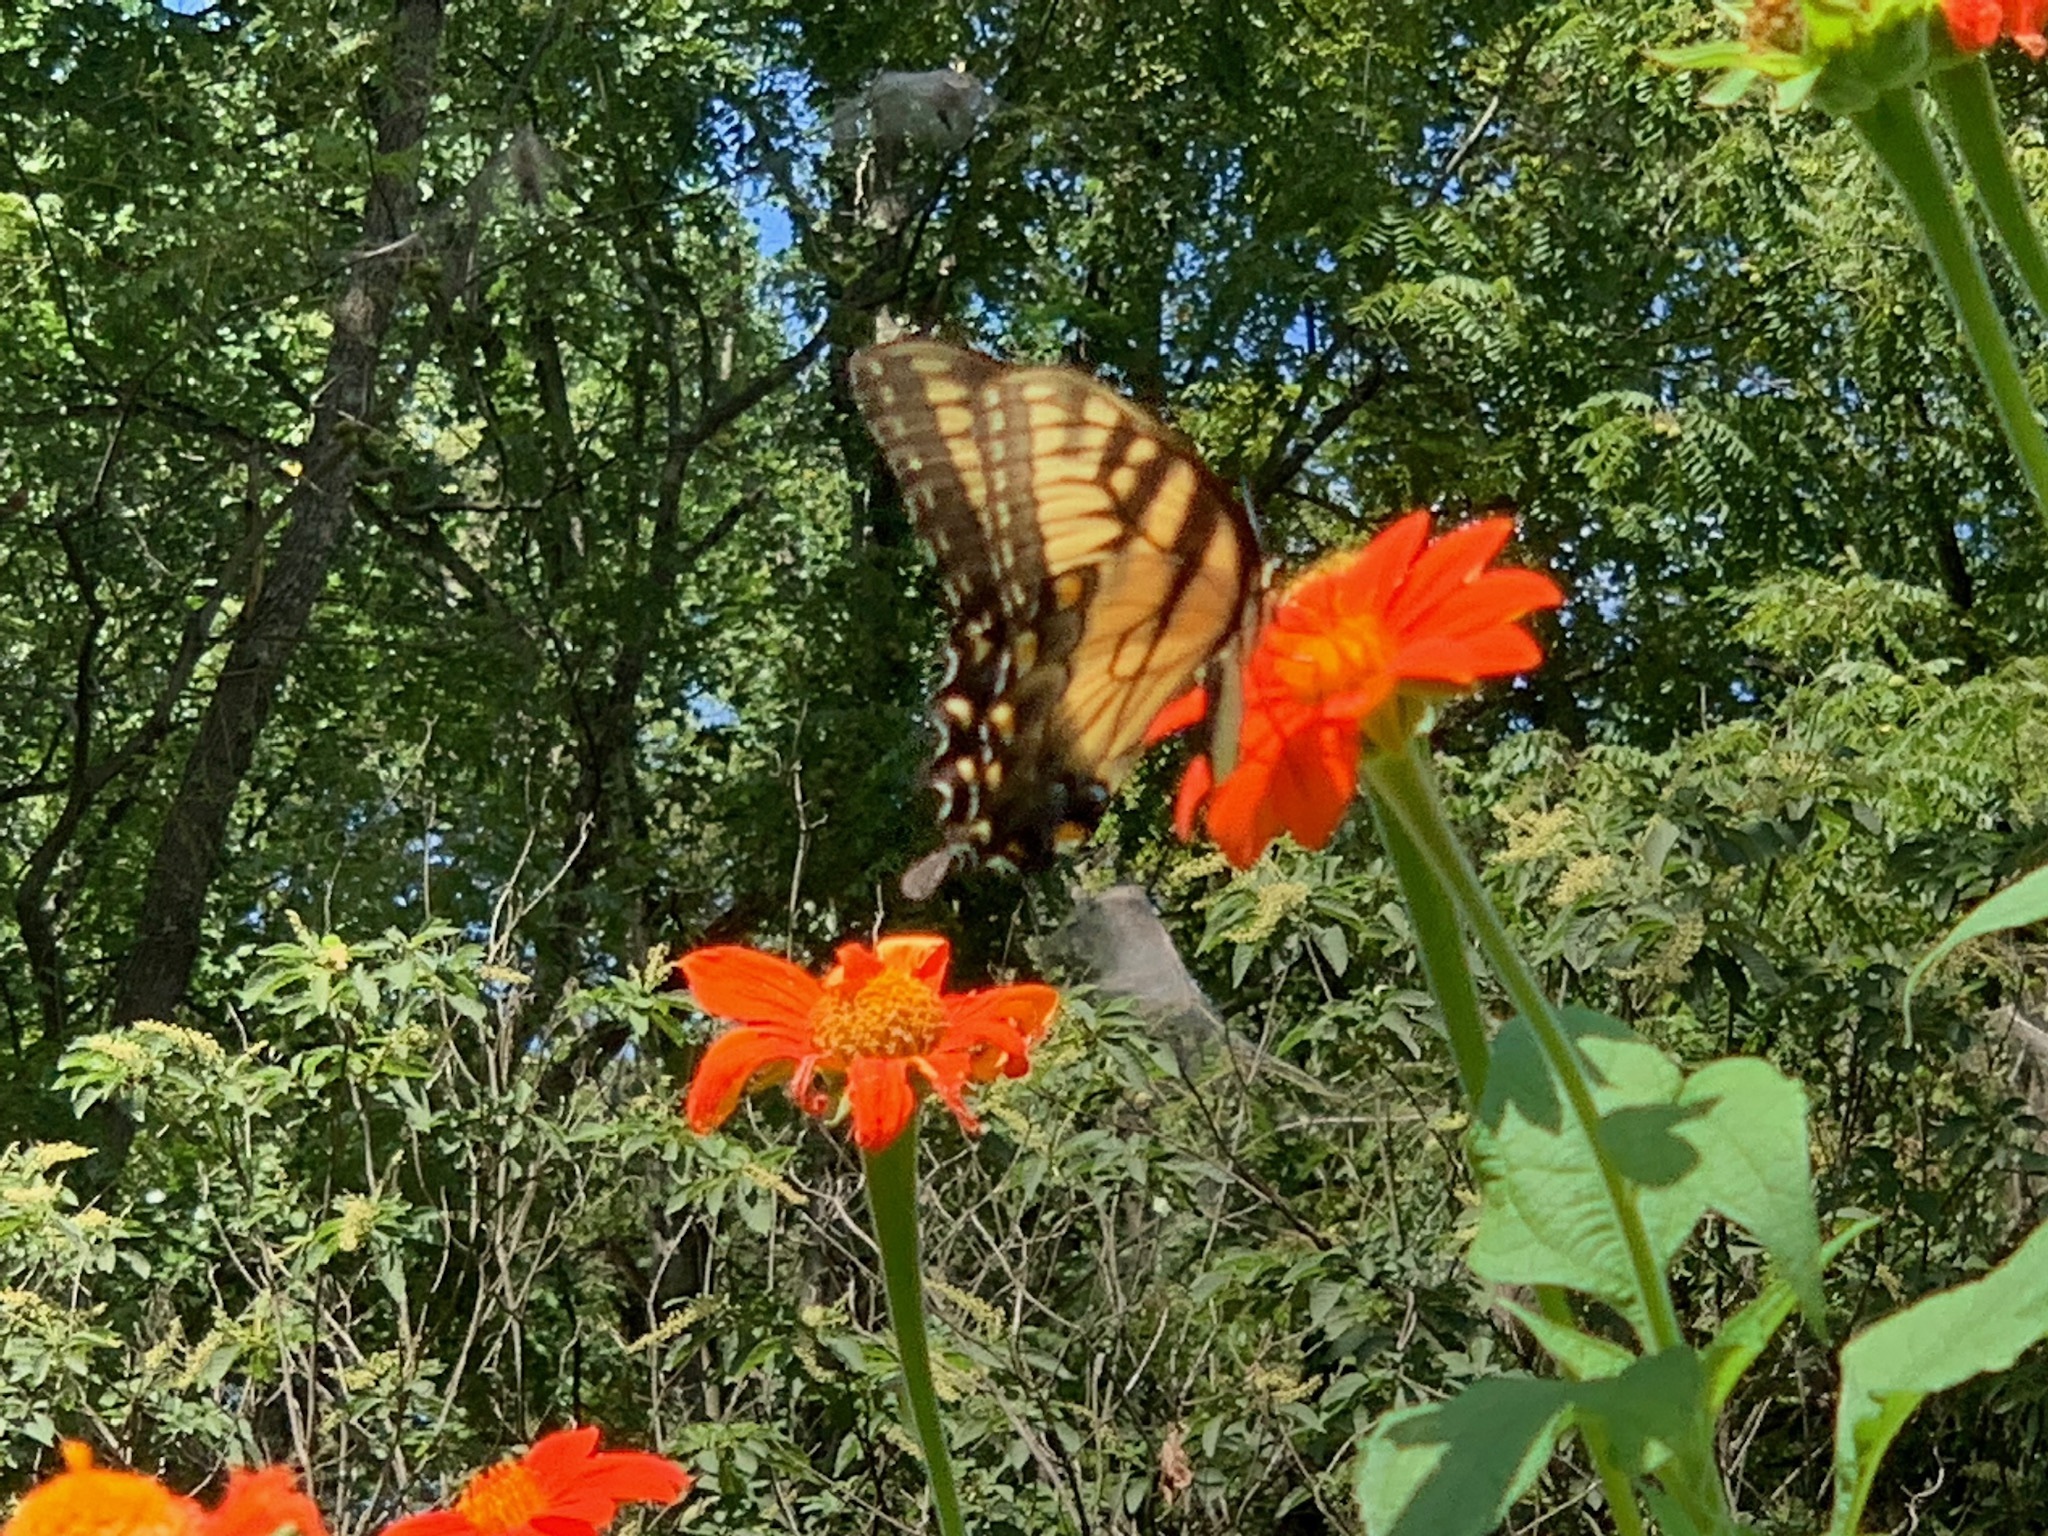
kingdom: Animalia
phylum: Arthropoda
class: Insecta
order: Lepidoptera
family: Papilionidae
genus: Papilio
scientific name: Papilio glaucus
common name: Tiger swallowtail
